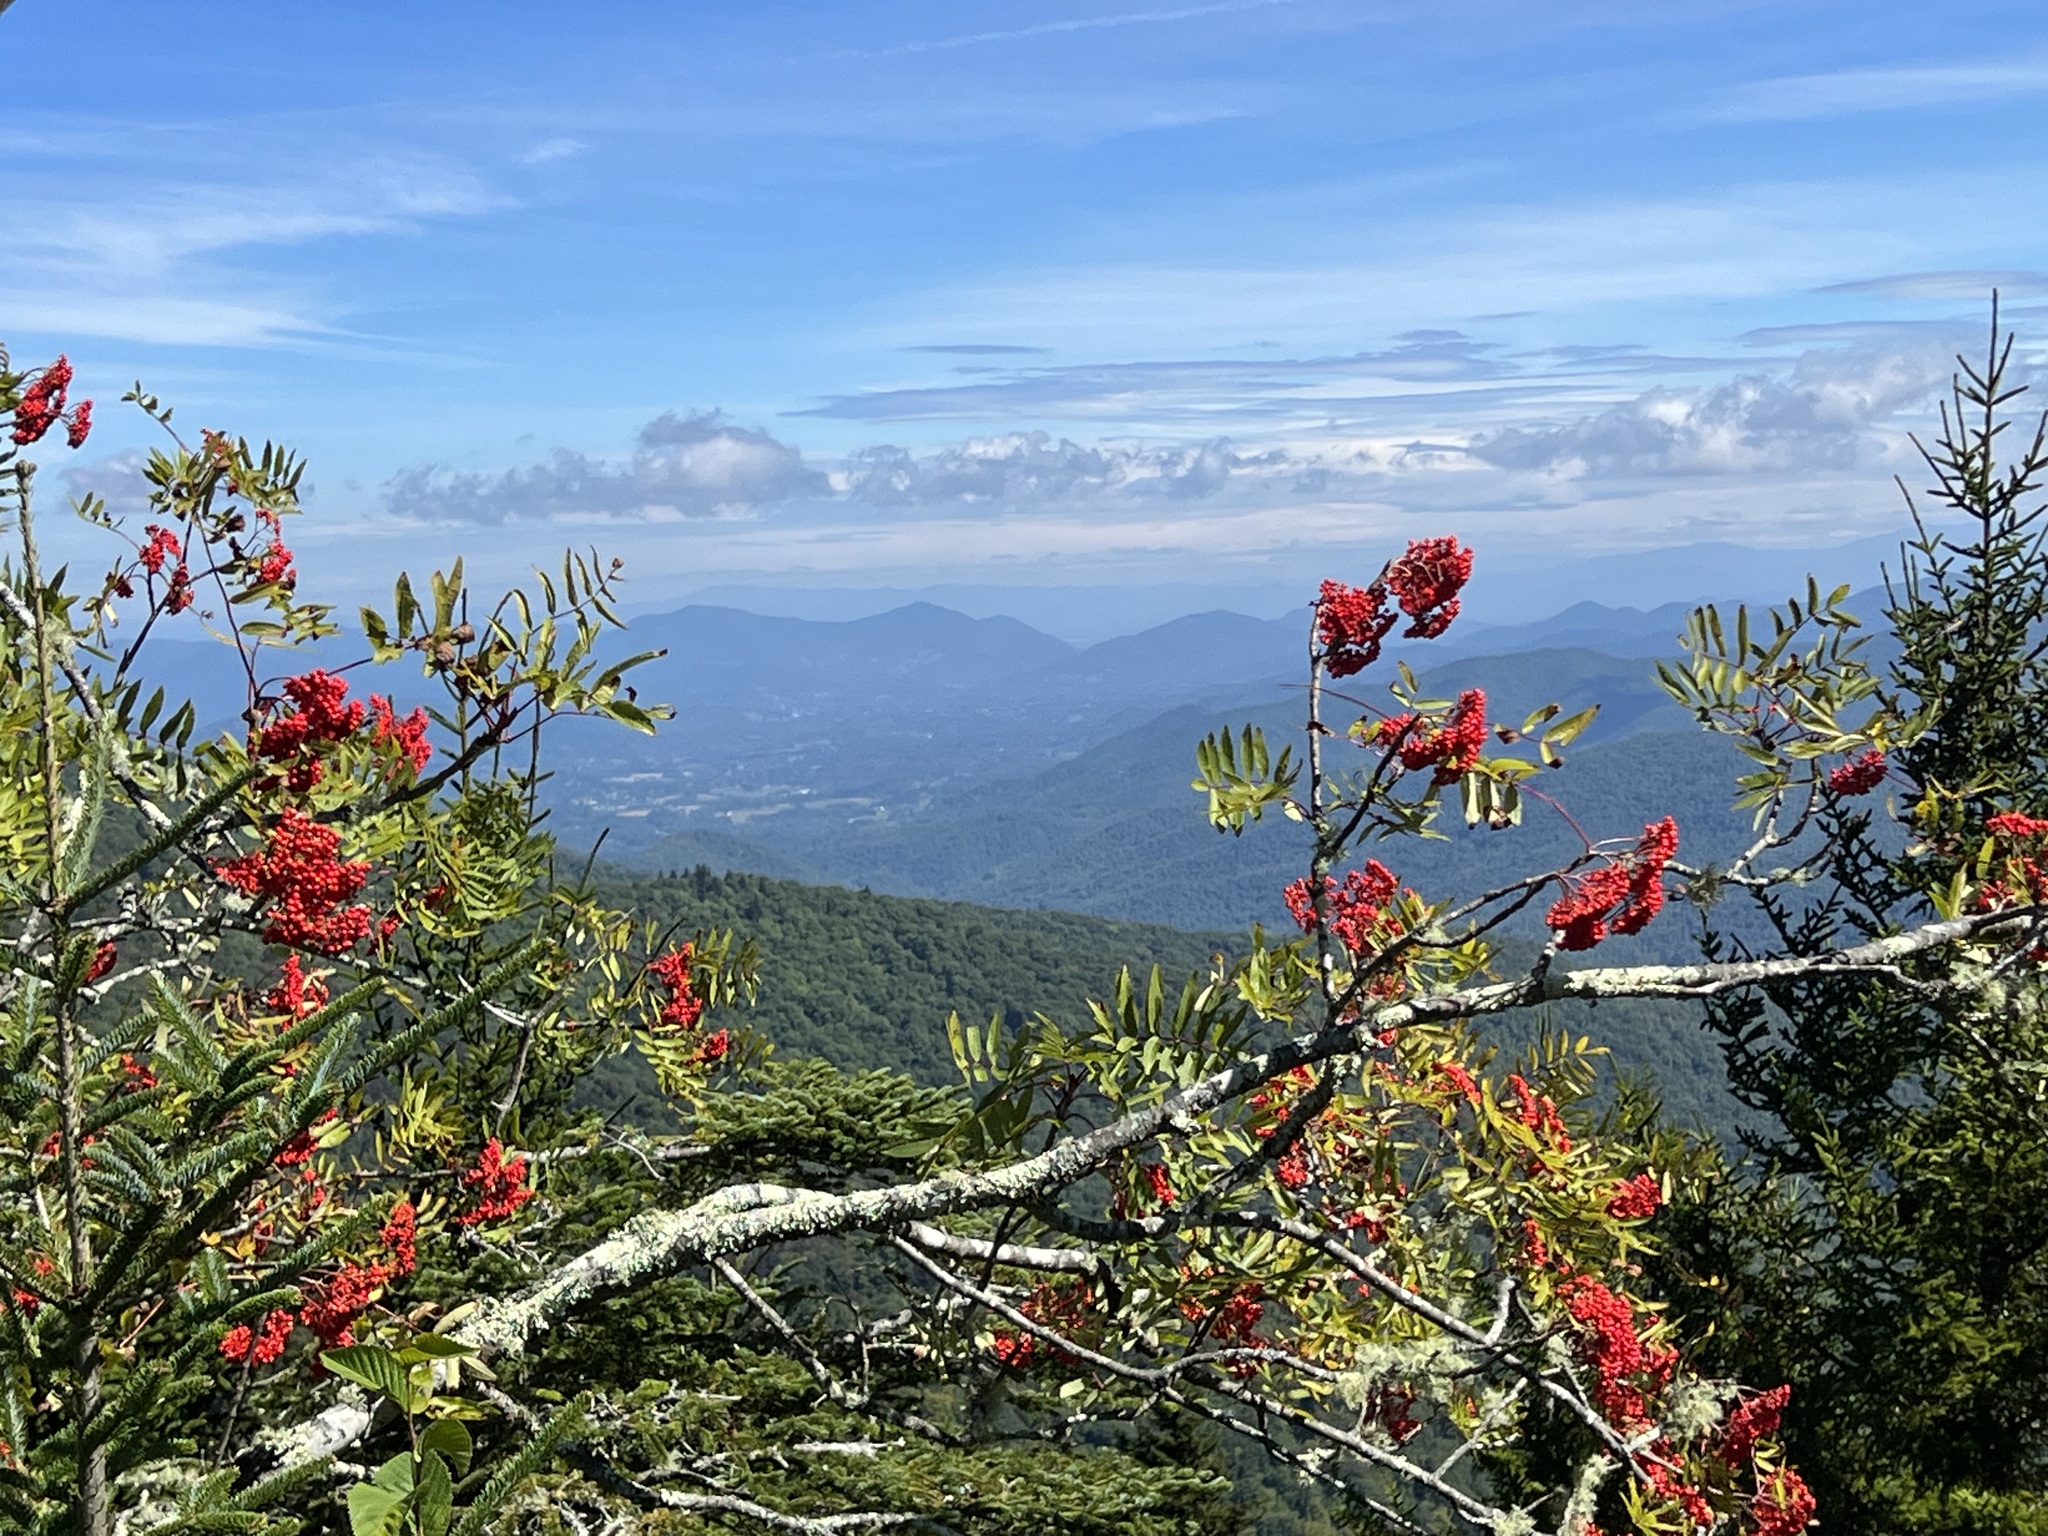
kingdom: Plantae
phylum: Tracheophyta
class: Magnoliopsida
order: Rosales
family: Rosaceae
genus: Sorbus
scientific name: Sorbus americana
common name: American mountain-ash
